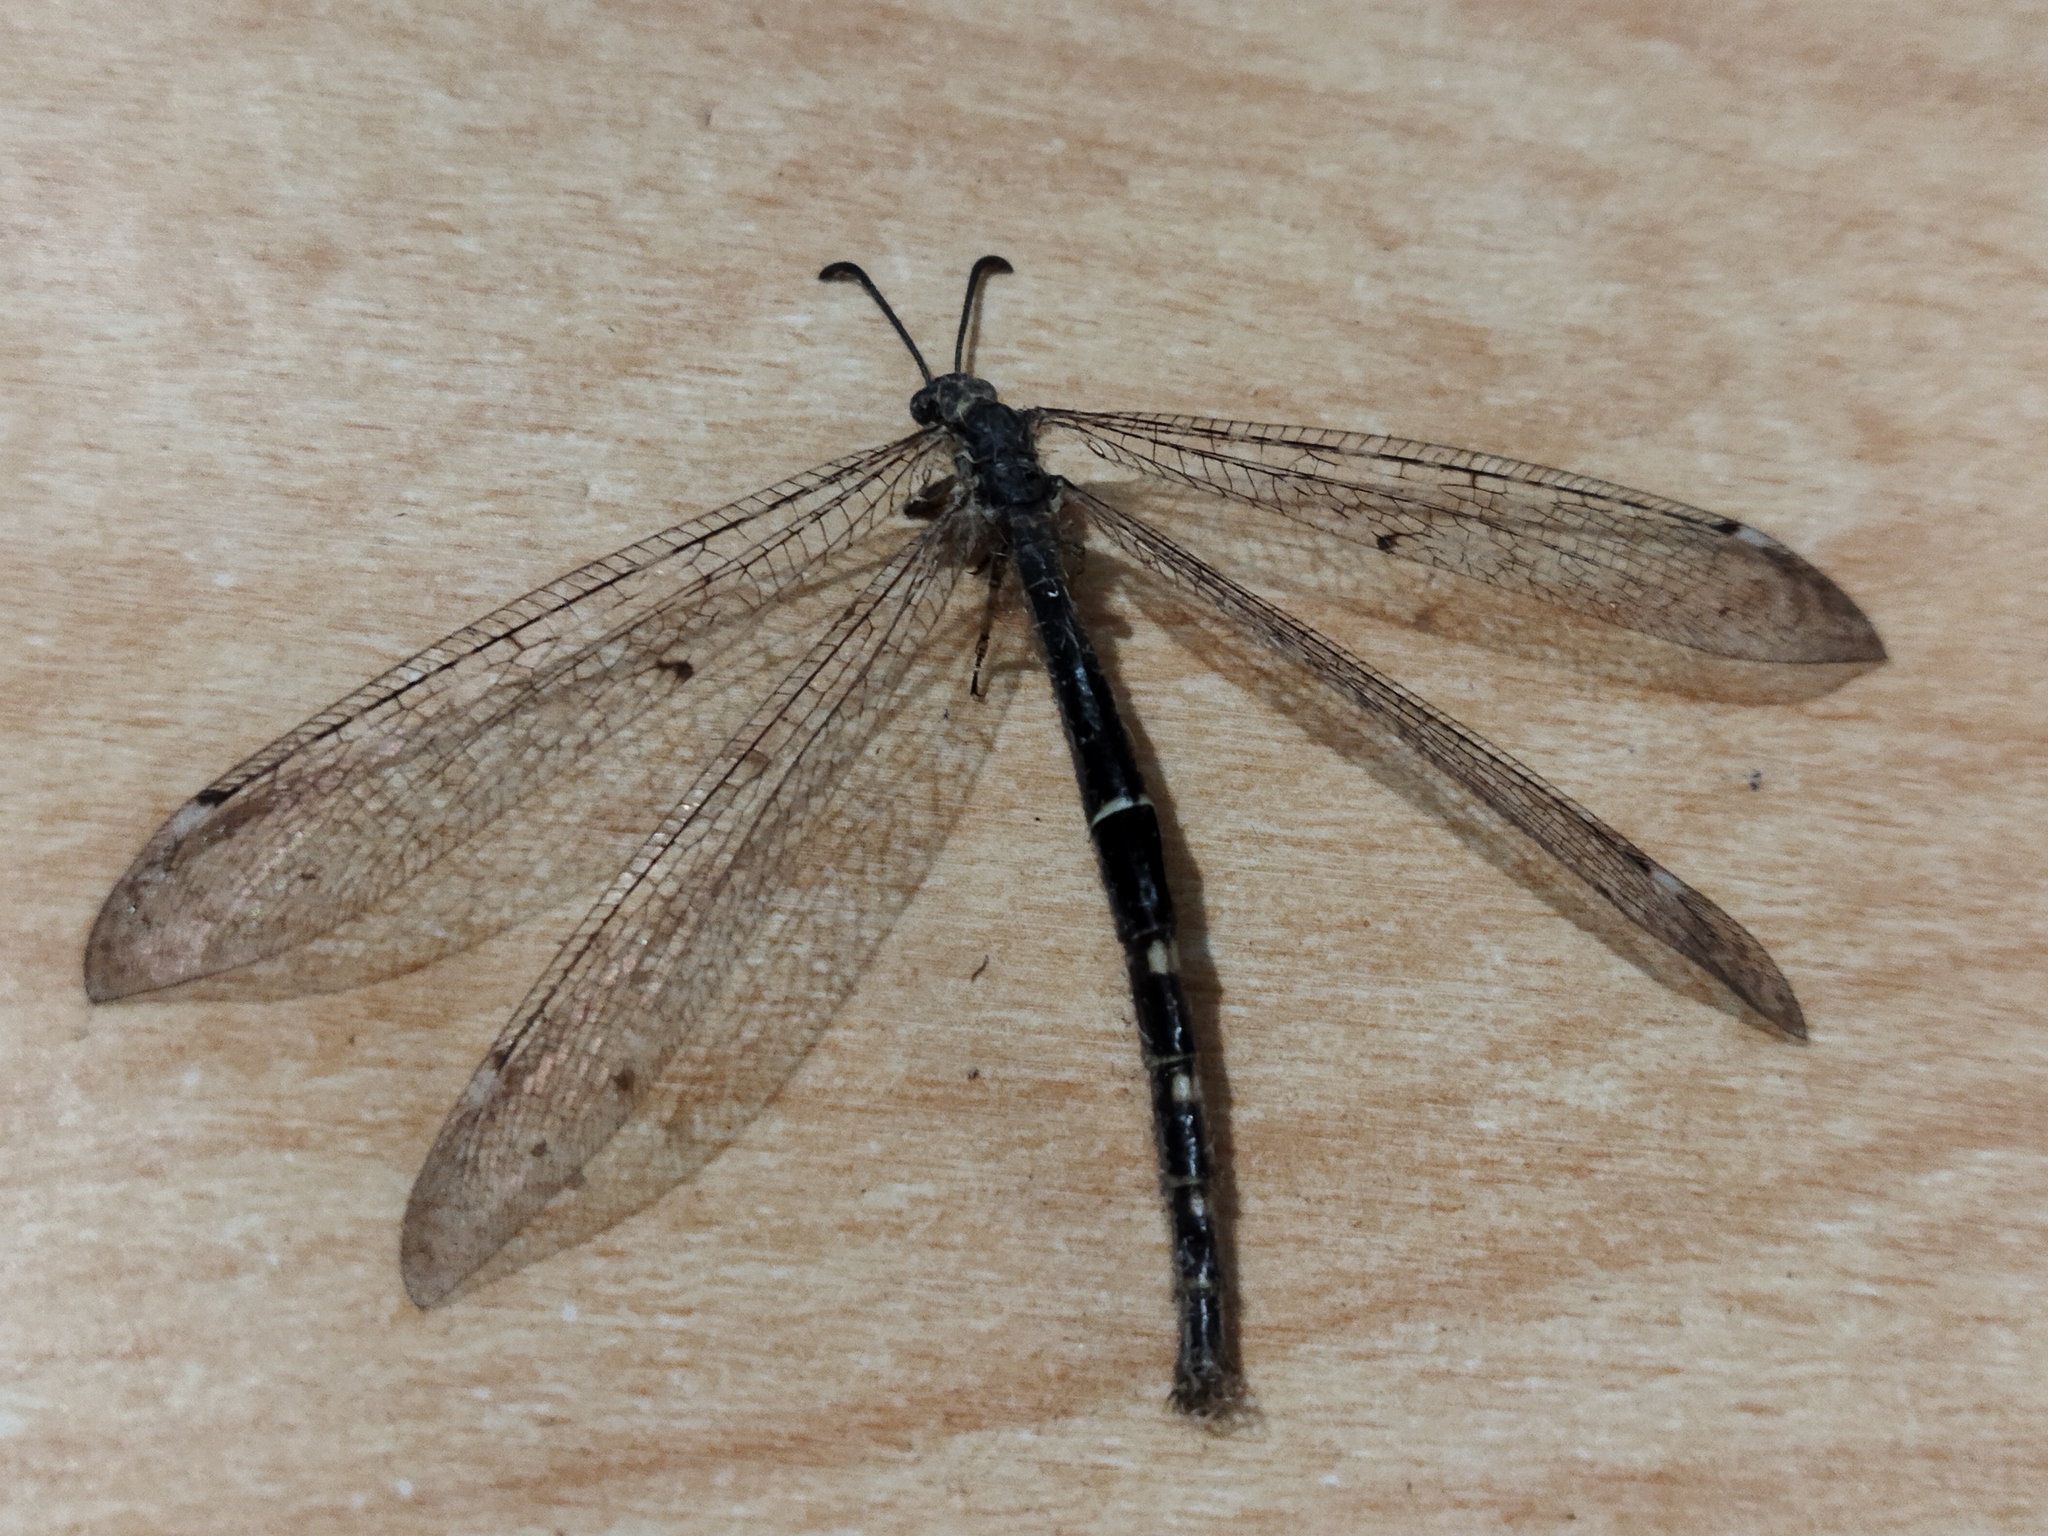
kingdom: Animalia
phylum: Arthropoda
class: Insecta
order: Neuroptera
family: Myrmeleontidae
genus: Distoleon
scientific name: Distoleon tetragrammicus
